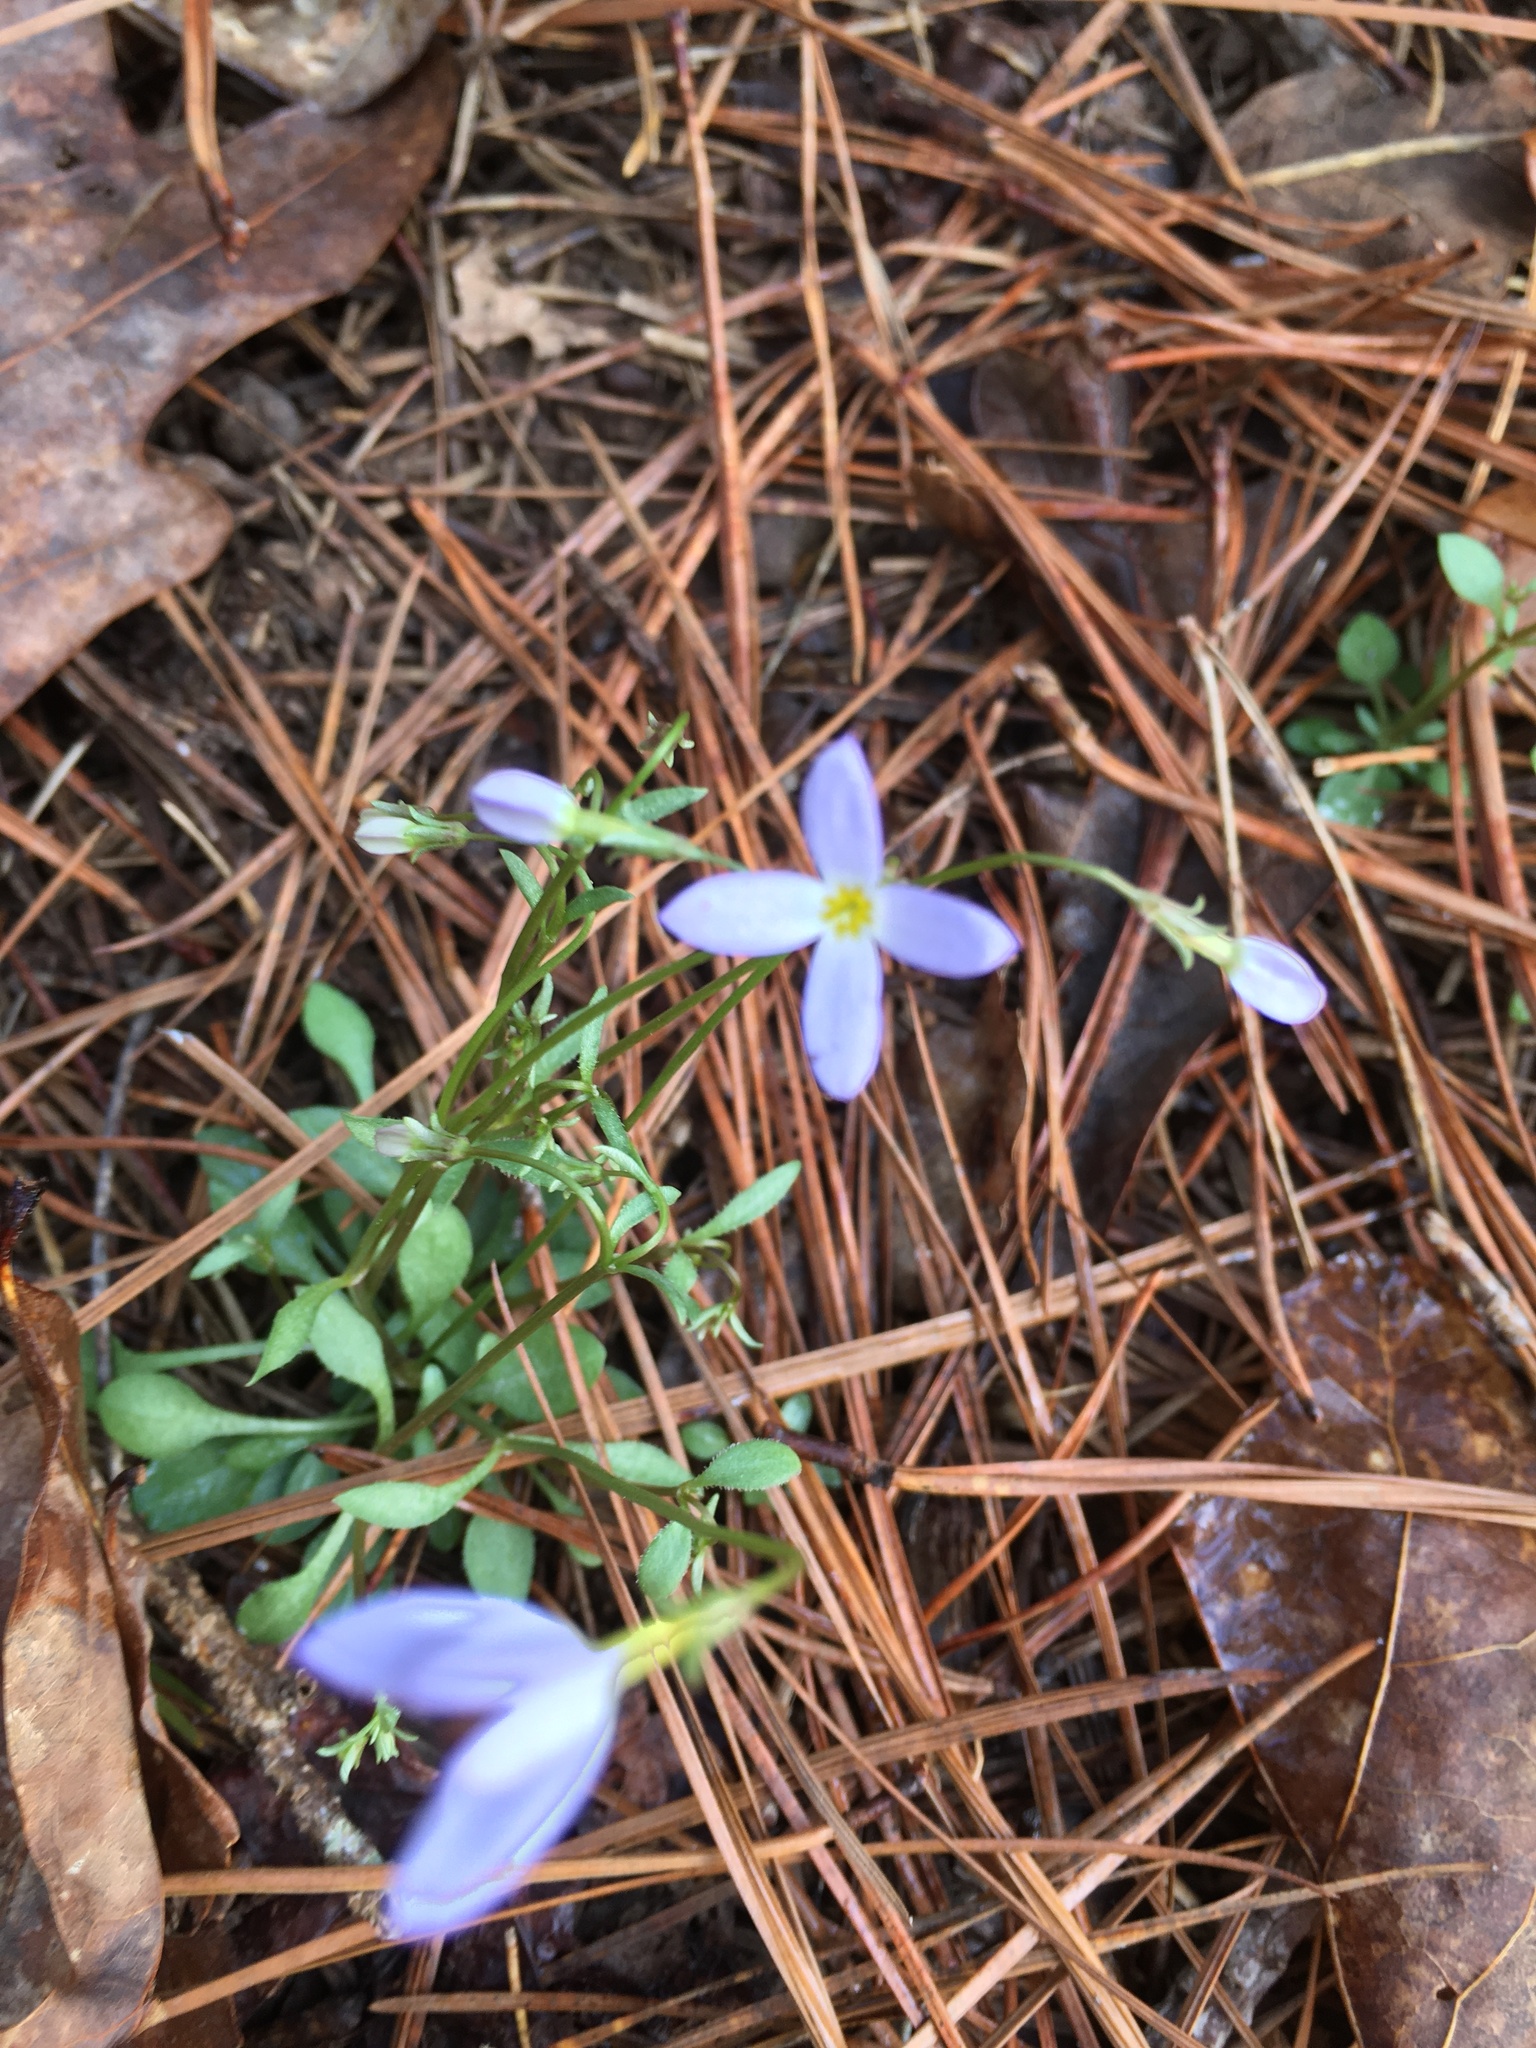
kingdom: Plantae
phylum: Tracheophyta
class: Magnoliopsida
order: Gentianales
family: Rubiaceae
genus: Houstonia
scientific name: Houstonia caerulea
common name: Bluets
